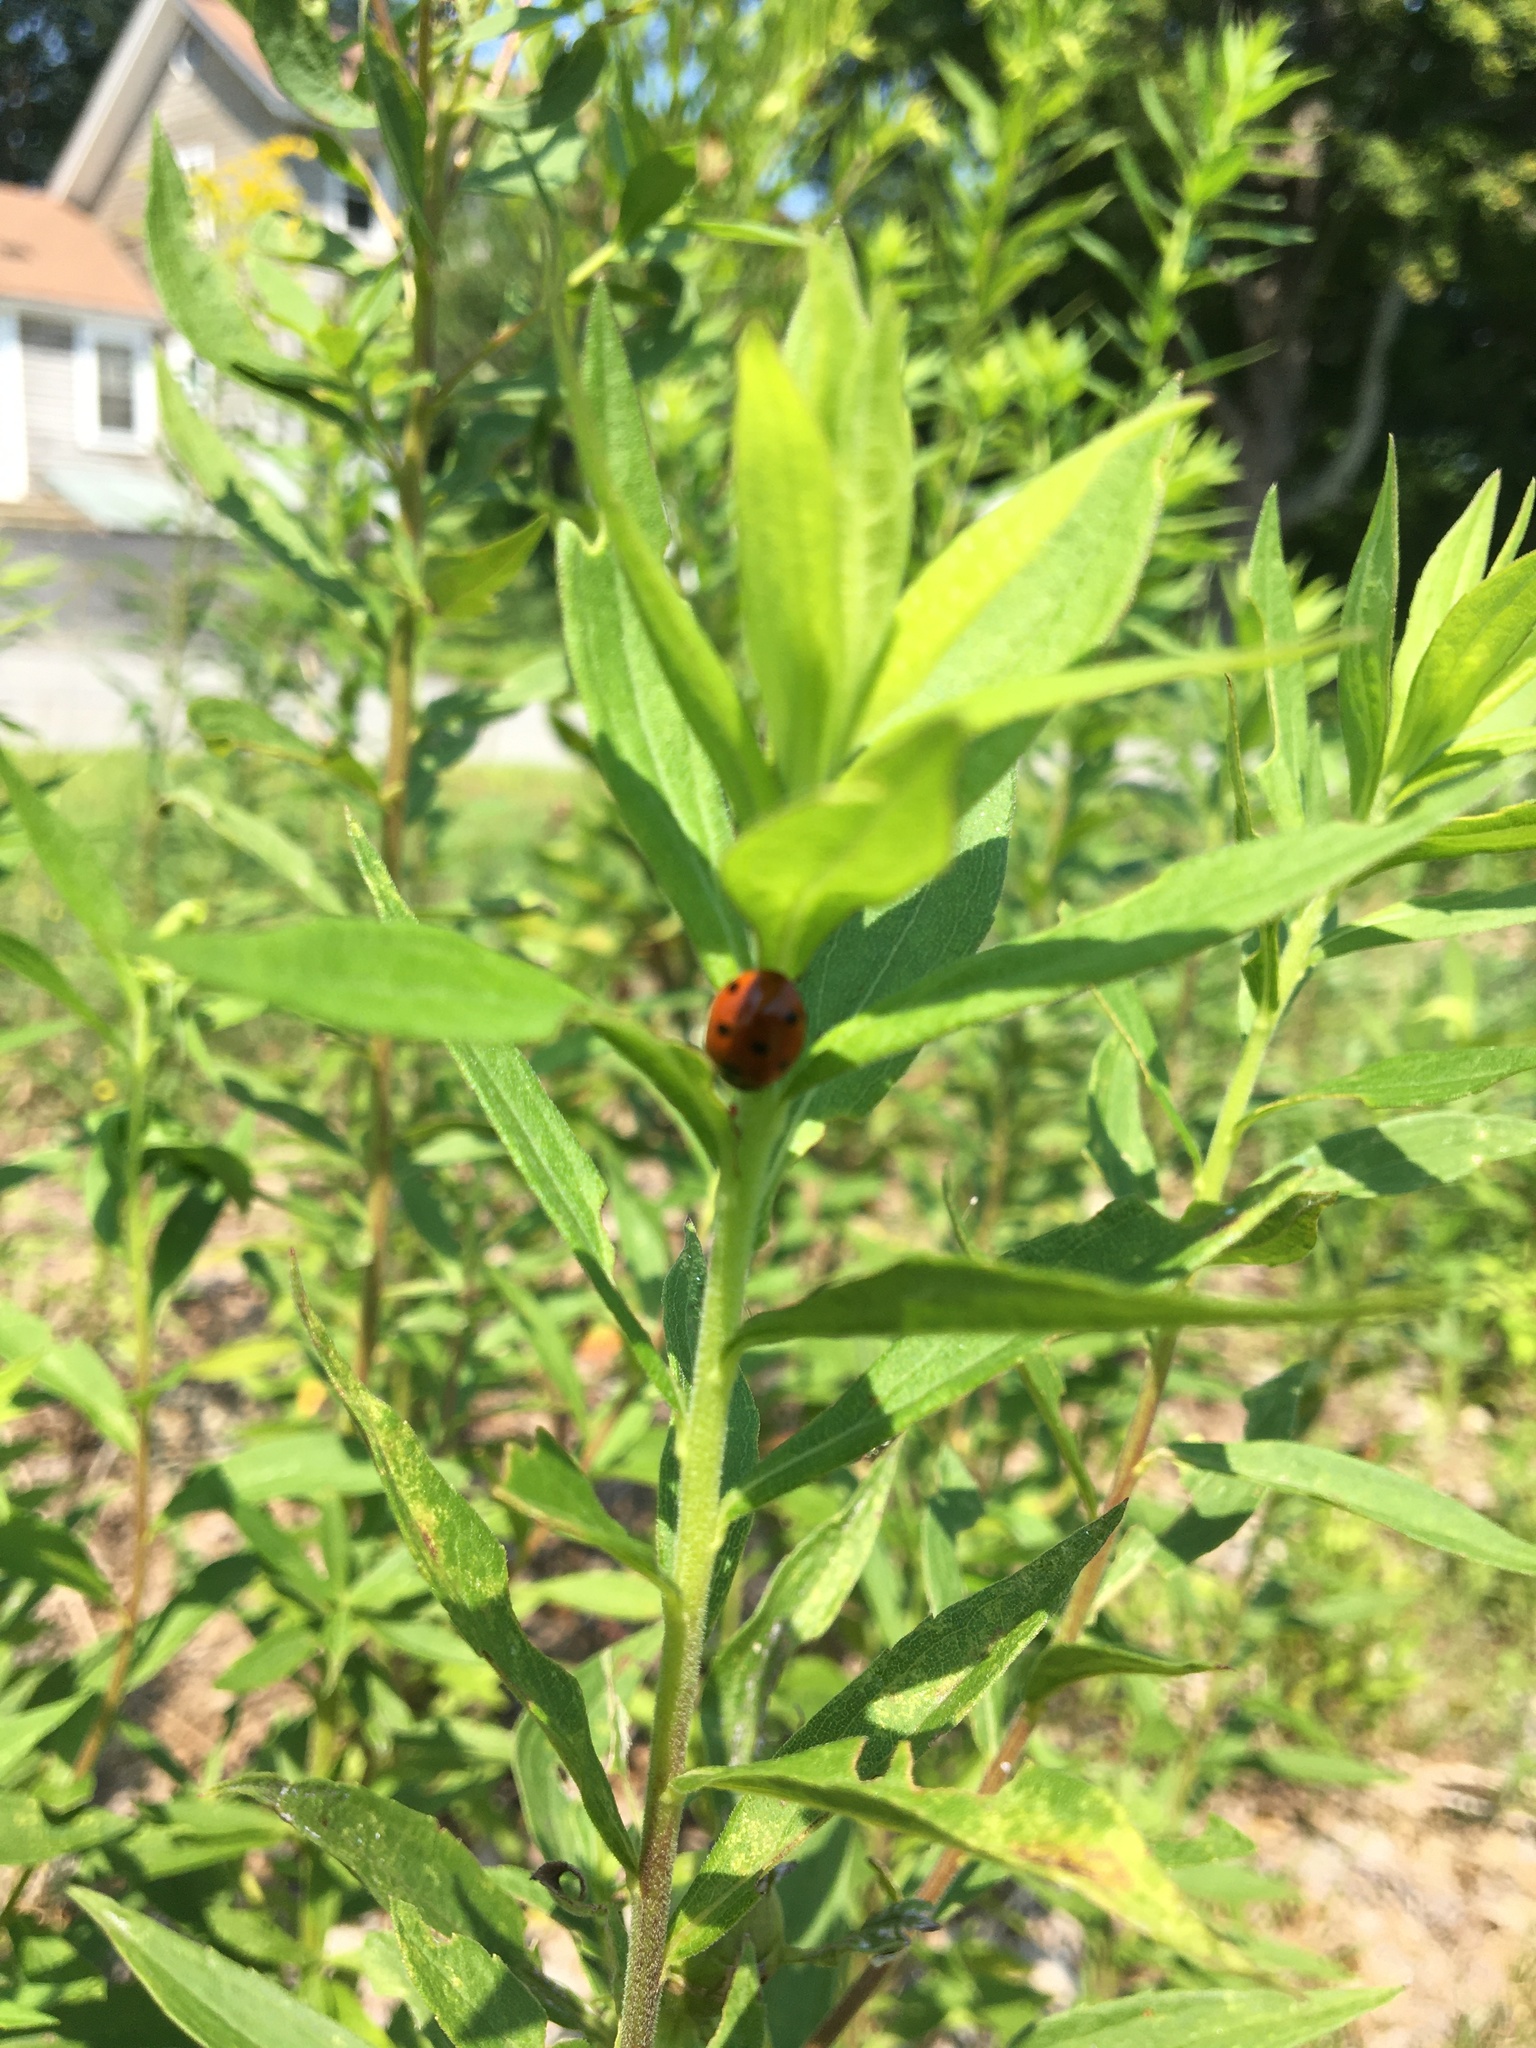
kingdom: Animalia
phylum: Arthropoda
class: Insecta
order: Coleoptera
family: Coccinellidae
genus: Coccinella
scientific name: Coccinella septempunctata
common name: Sevenspotted lady beetle
